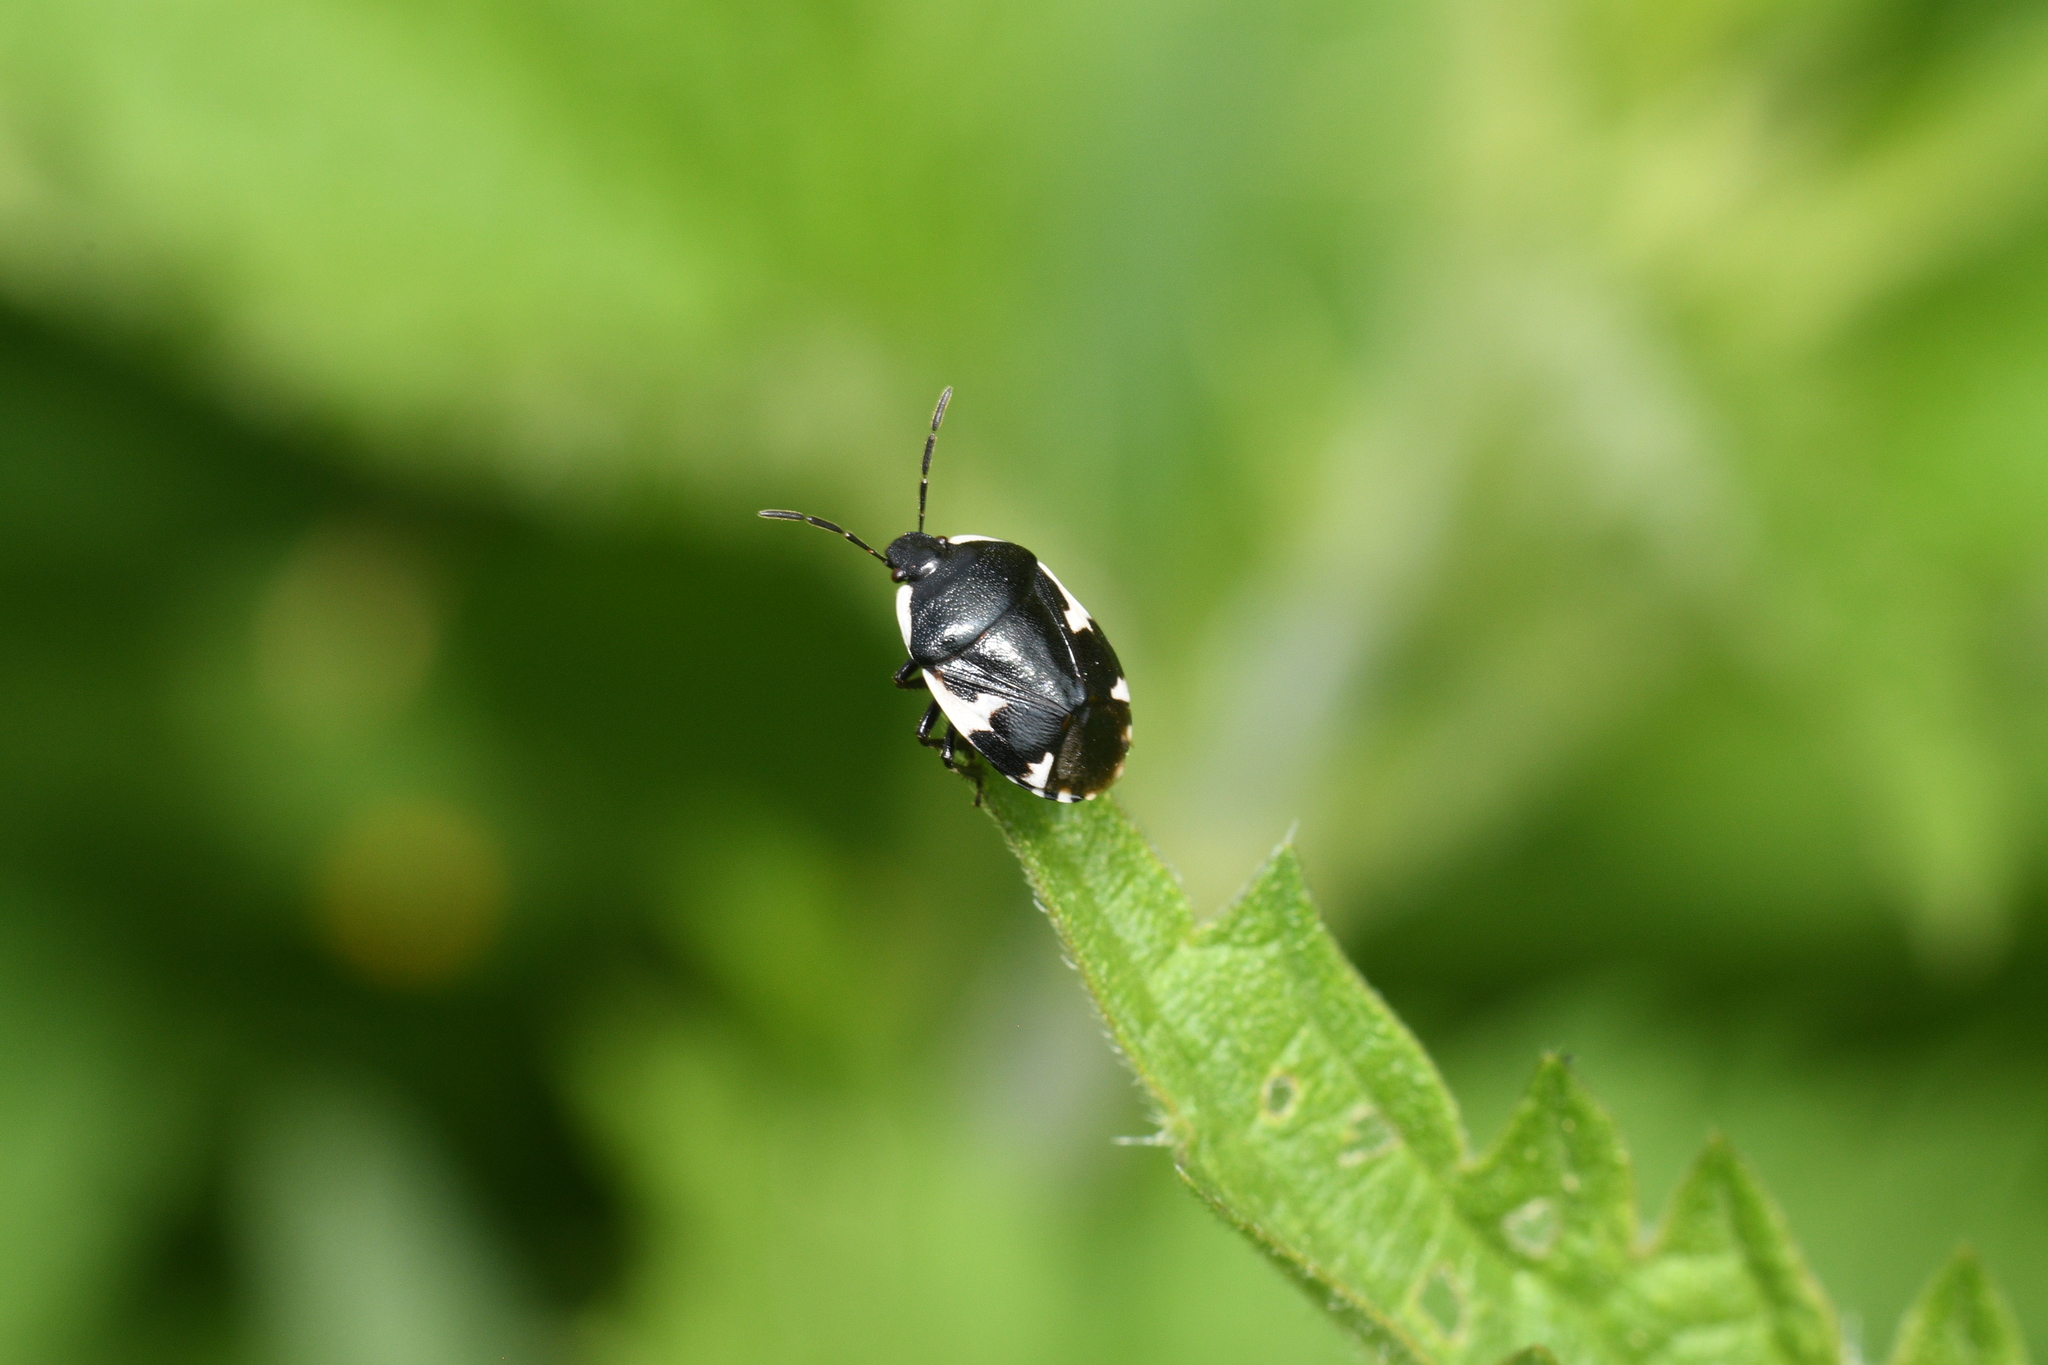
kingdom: Animalia
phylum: Arthropoda
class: Insecta
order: Hemiptera
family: Cydnidae
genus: Tritomegas
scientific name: Tritomegas sexmaculatus
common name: Rambur's pied shieldbug
